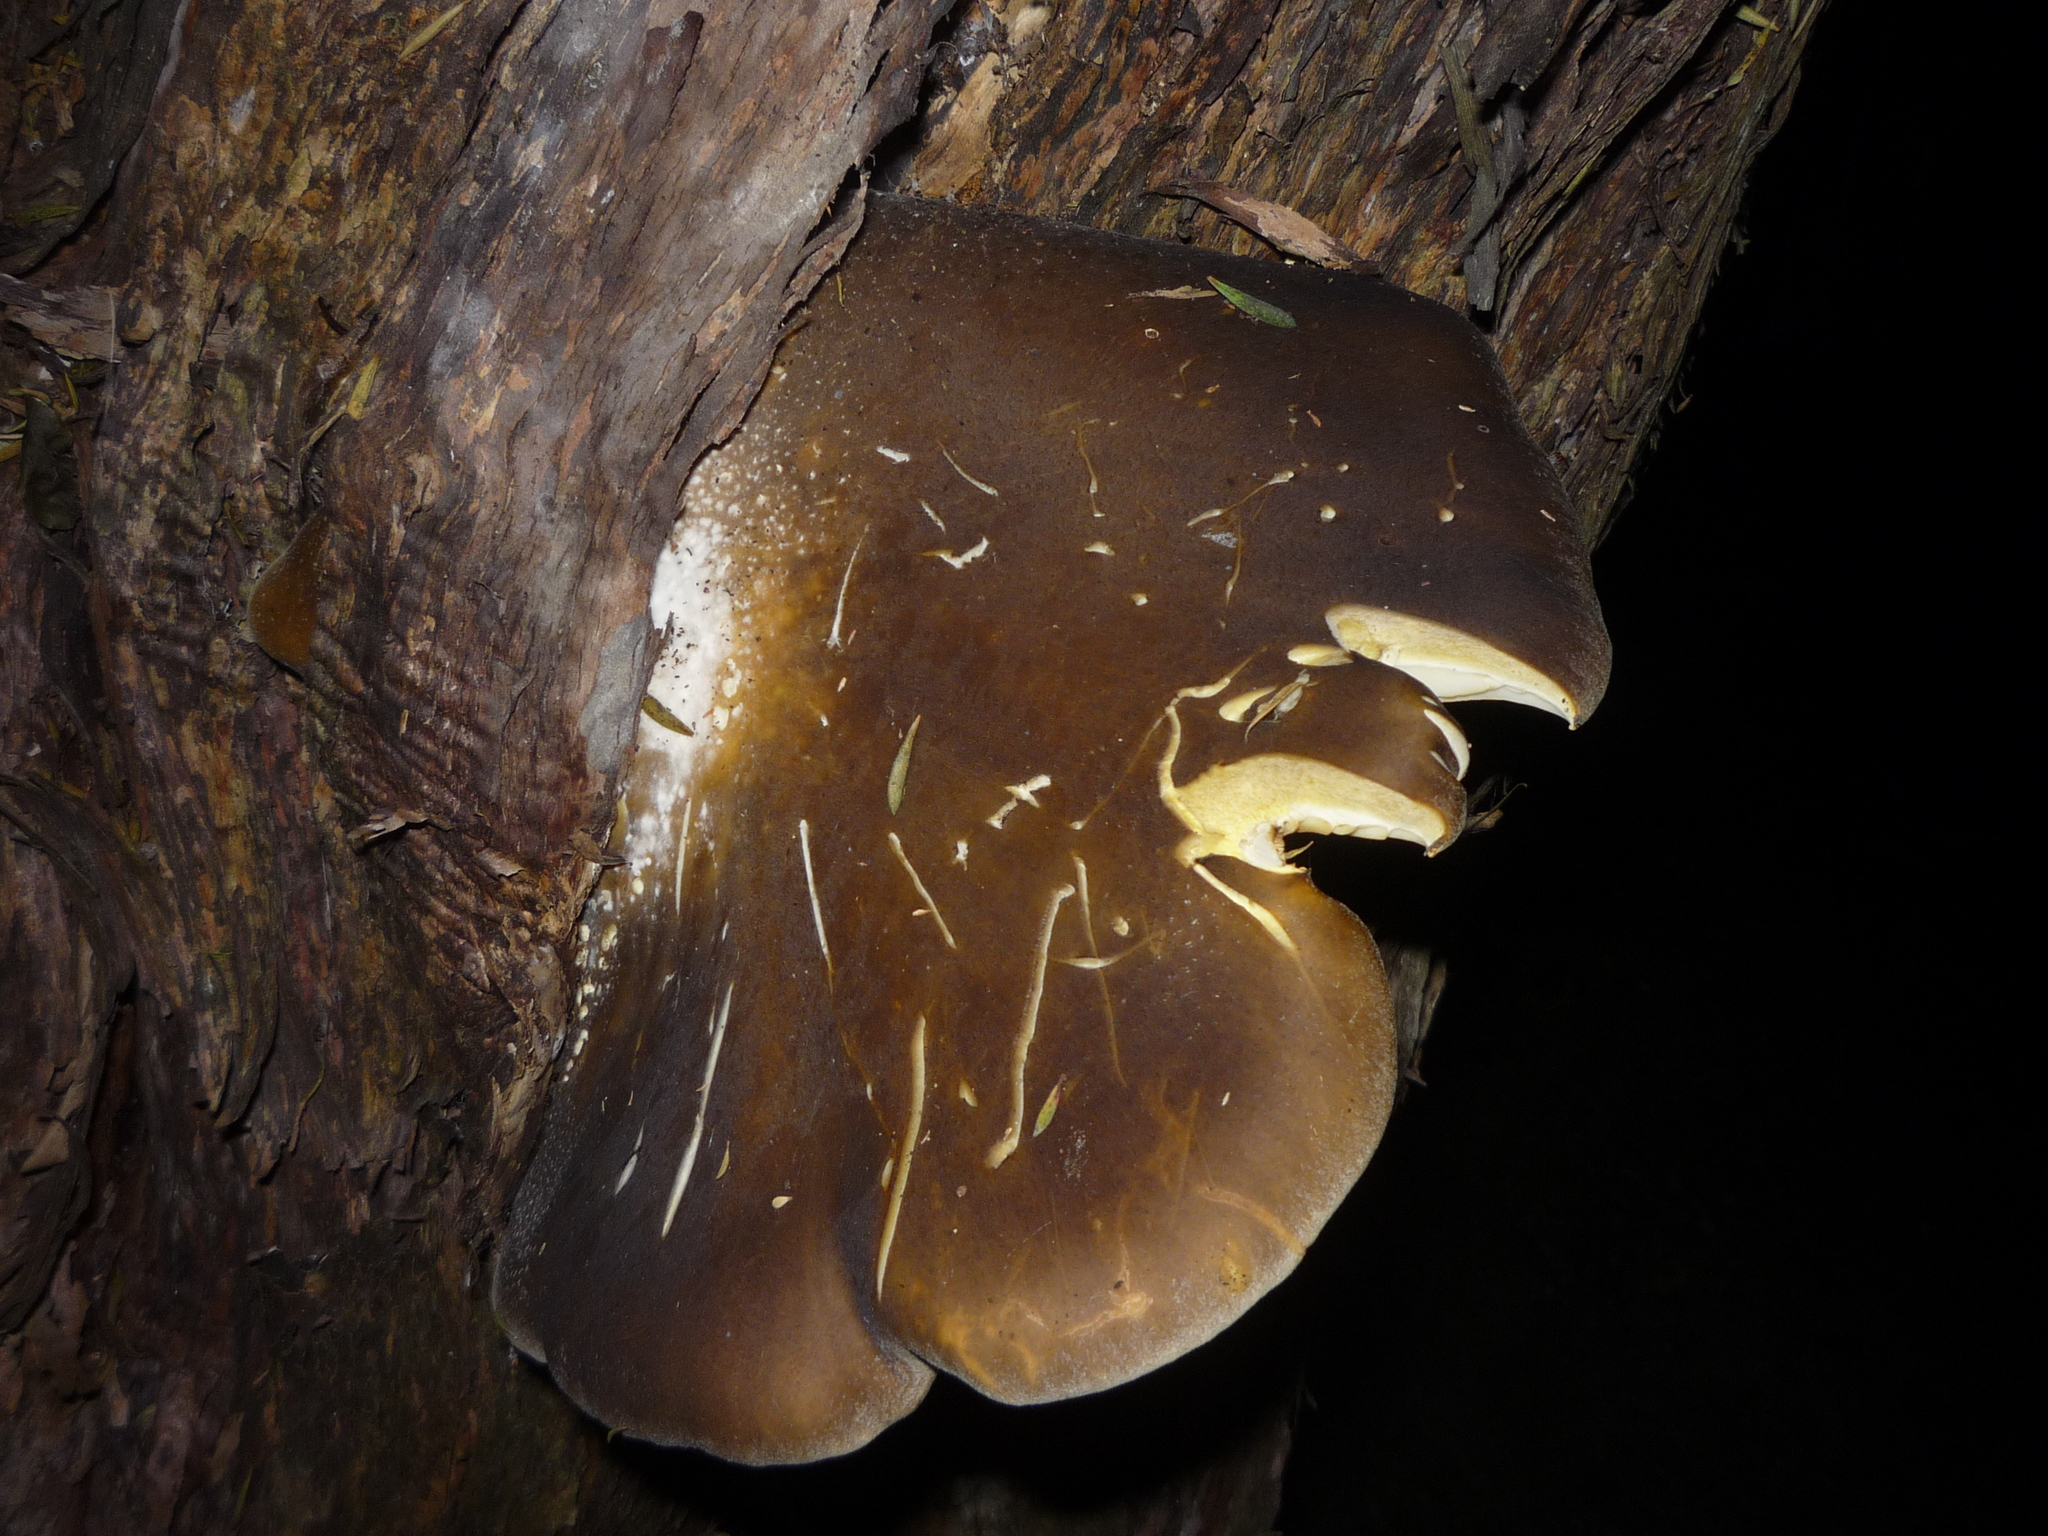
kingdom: Fungi
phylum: Basidiomycota
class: Agaricomycetes
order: Agaricales
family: Pleurotaceae
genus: Pleurotus
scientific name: Pleurotus australis
